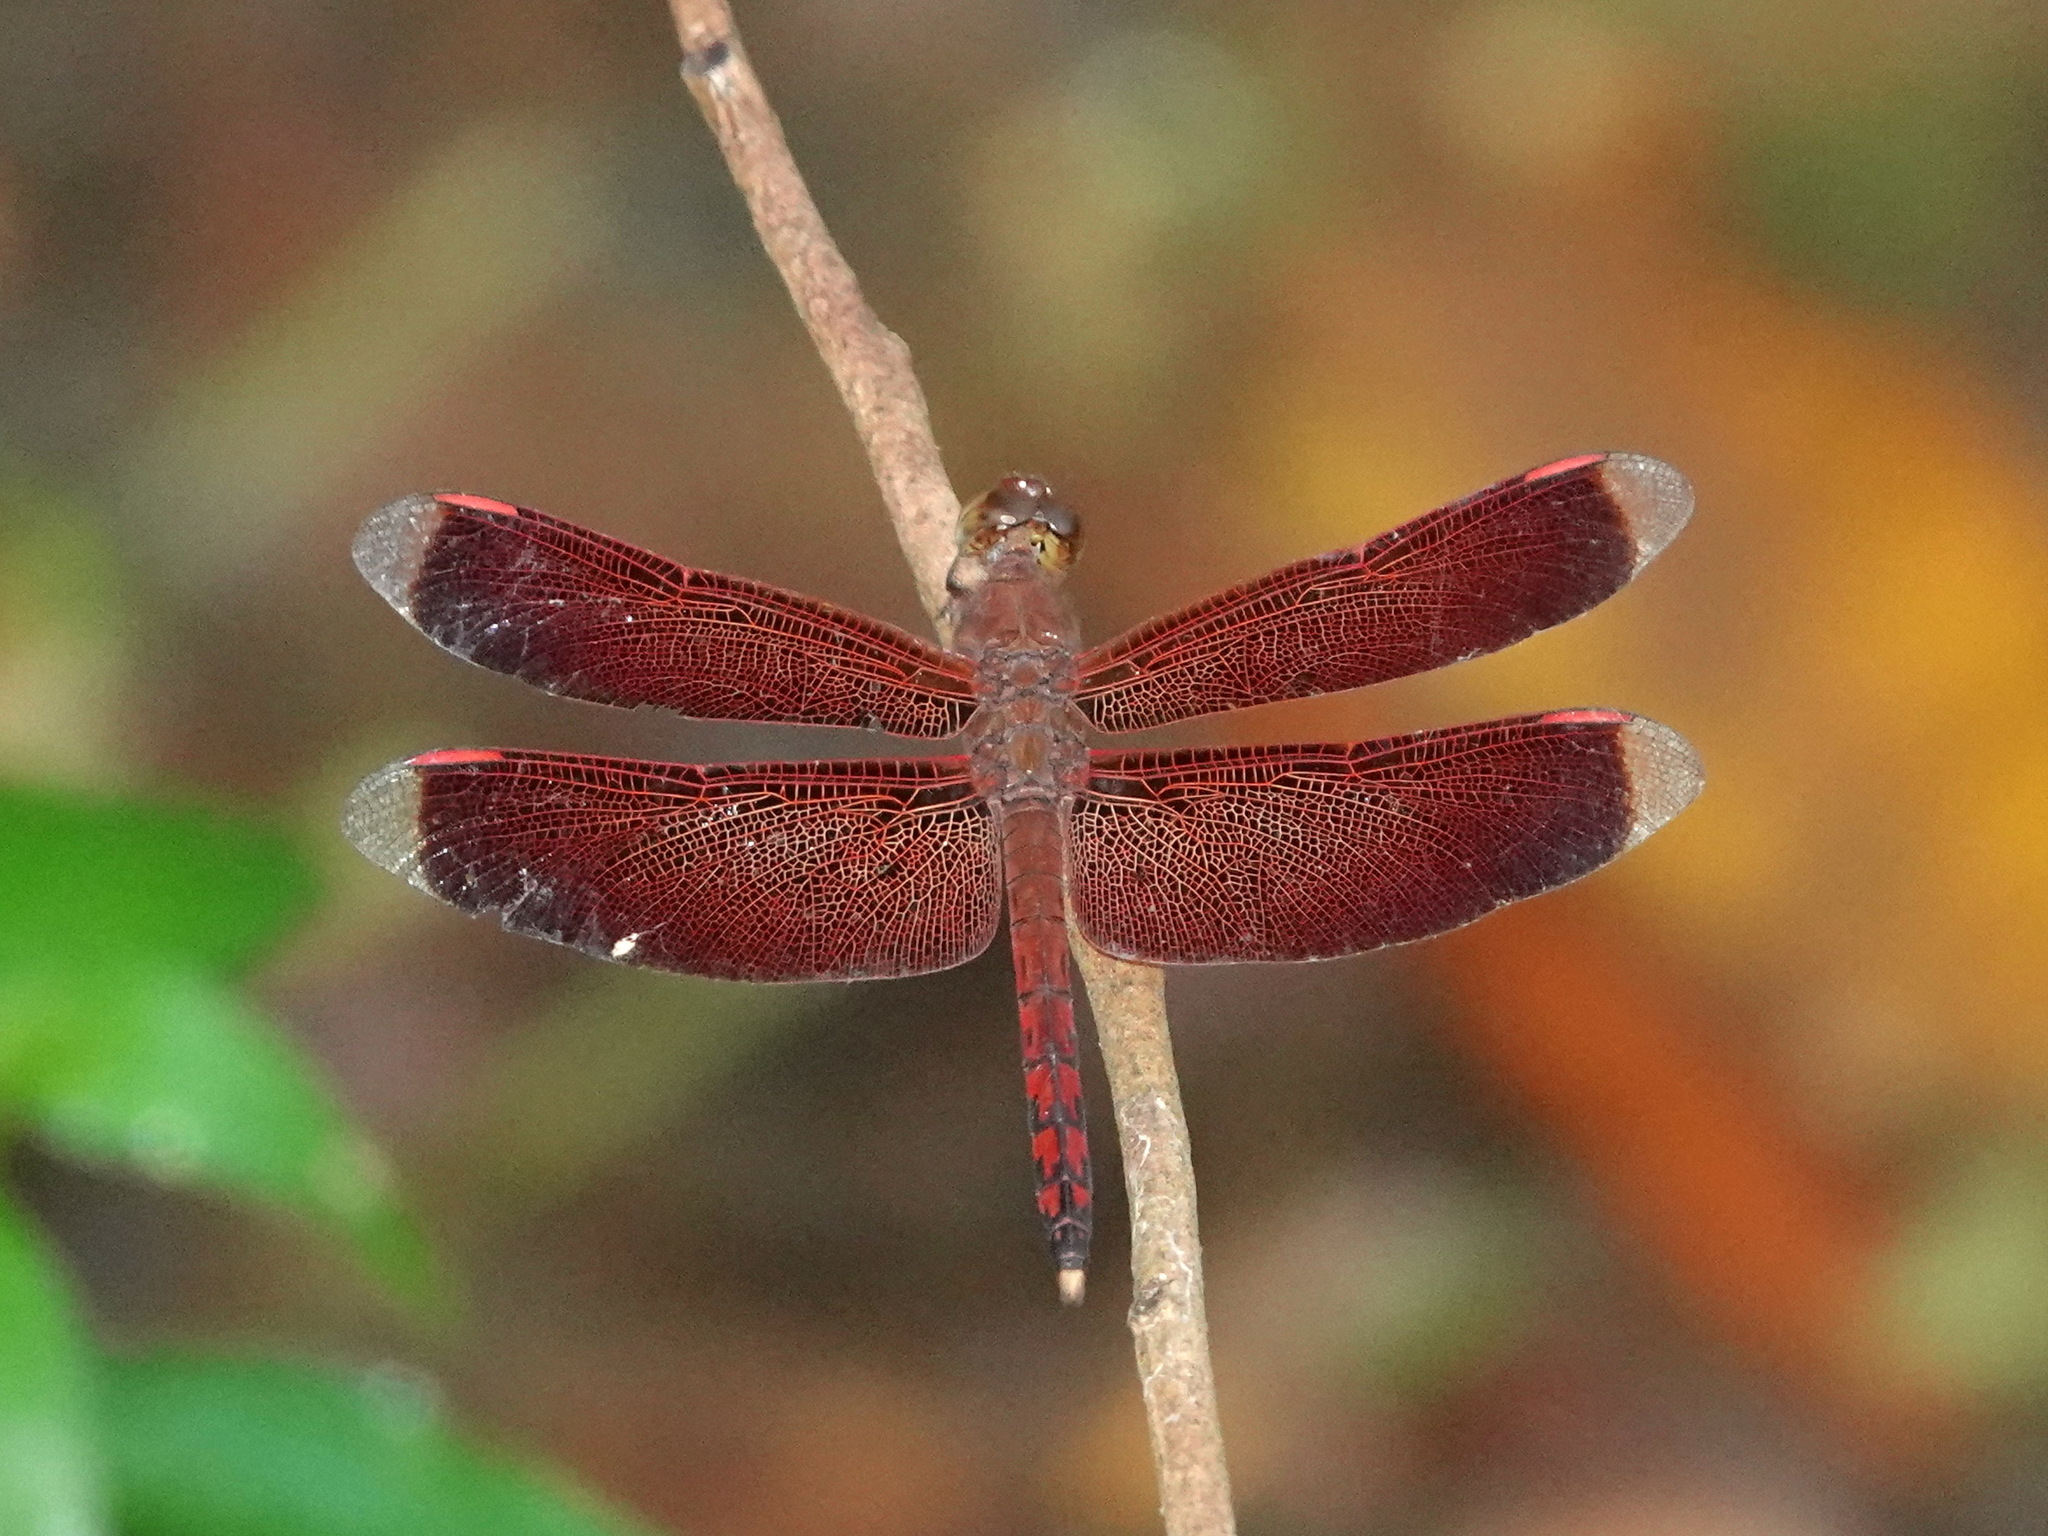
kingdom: Animalia
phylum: Arthropoda
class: Insecta
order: Odonata
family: Libellulidae
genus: Neurothemis
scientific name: Neurothemis terminata
